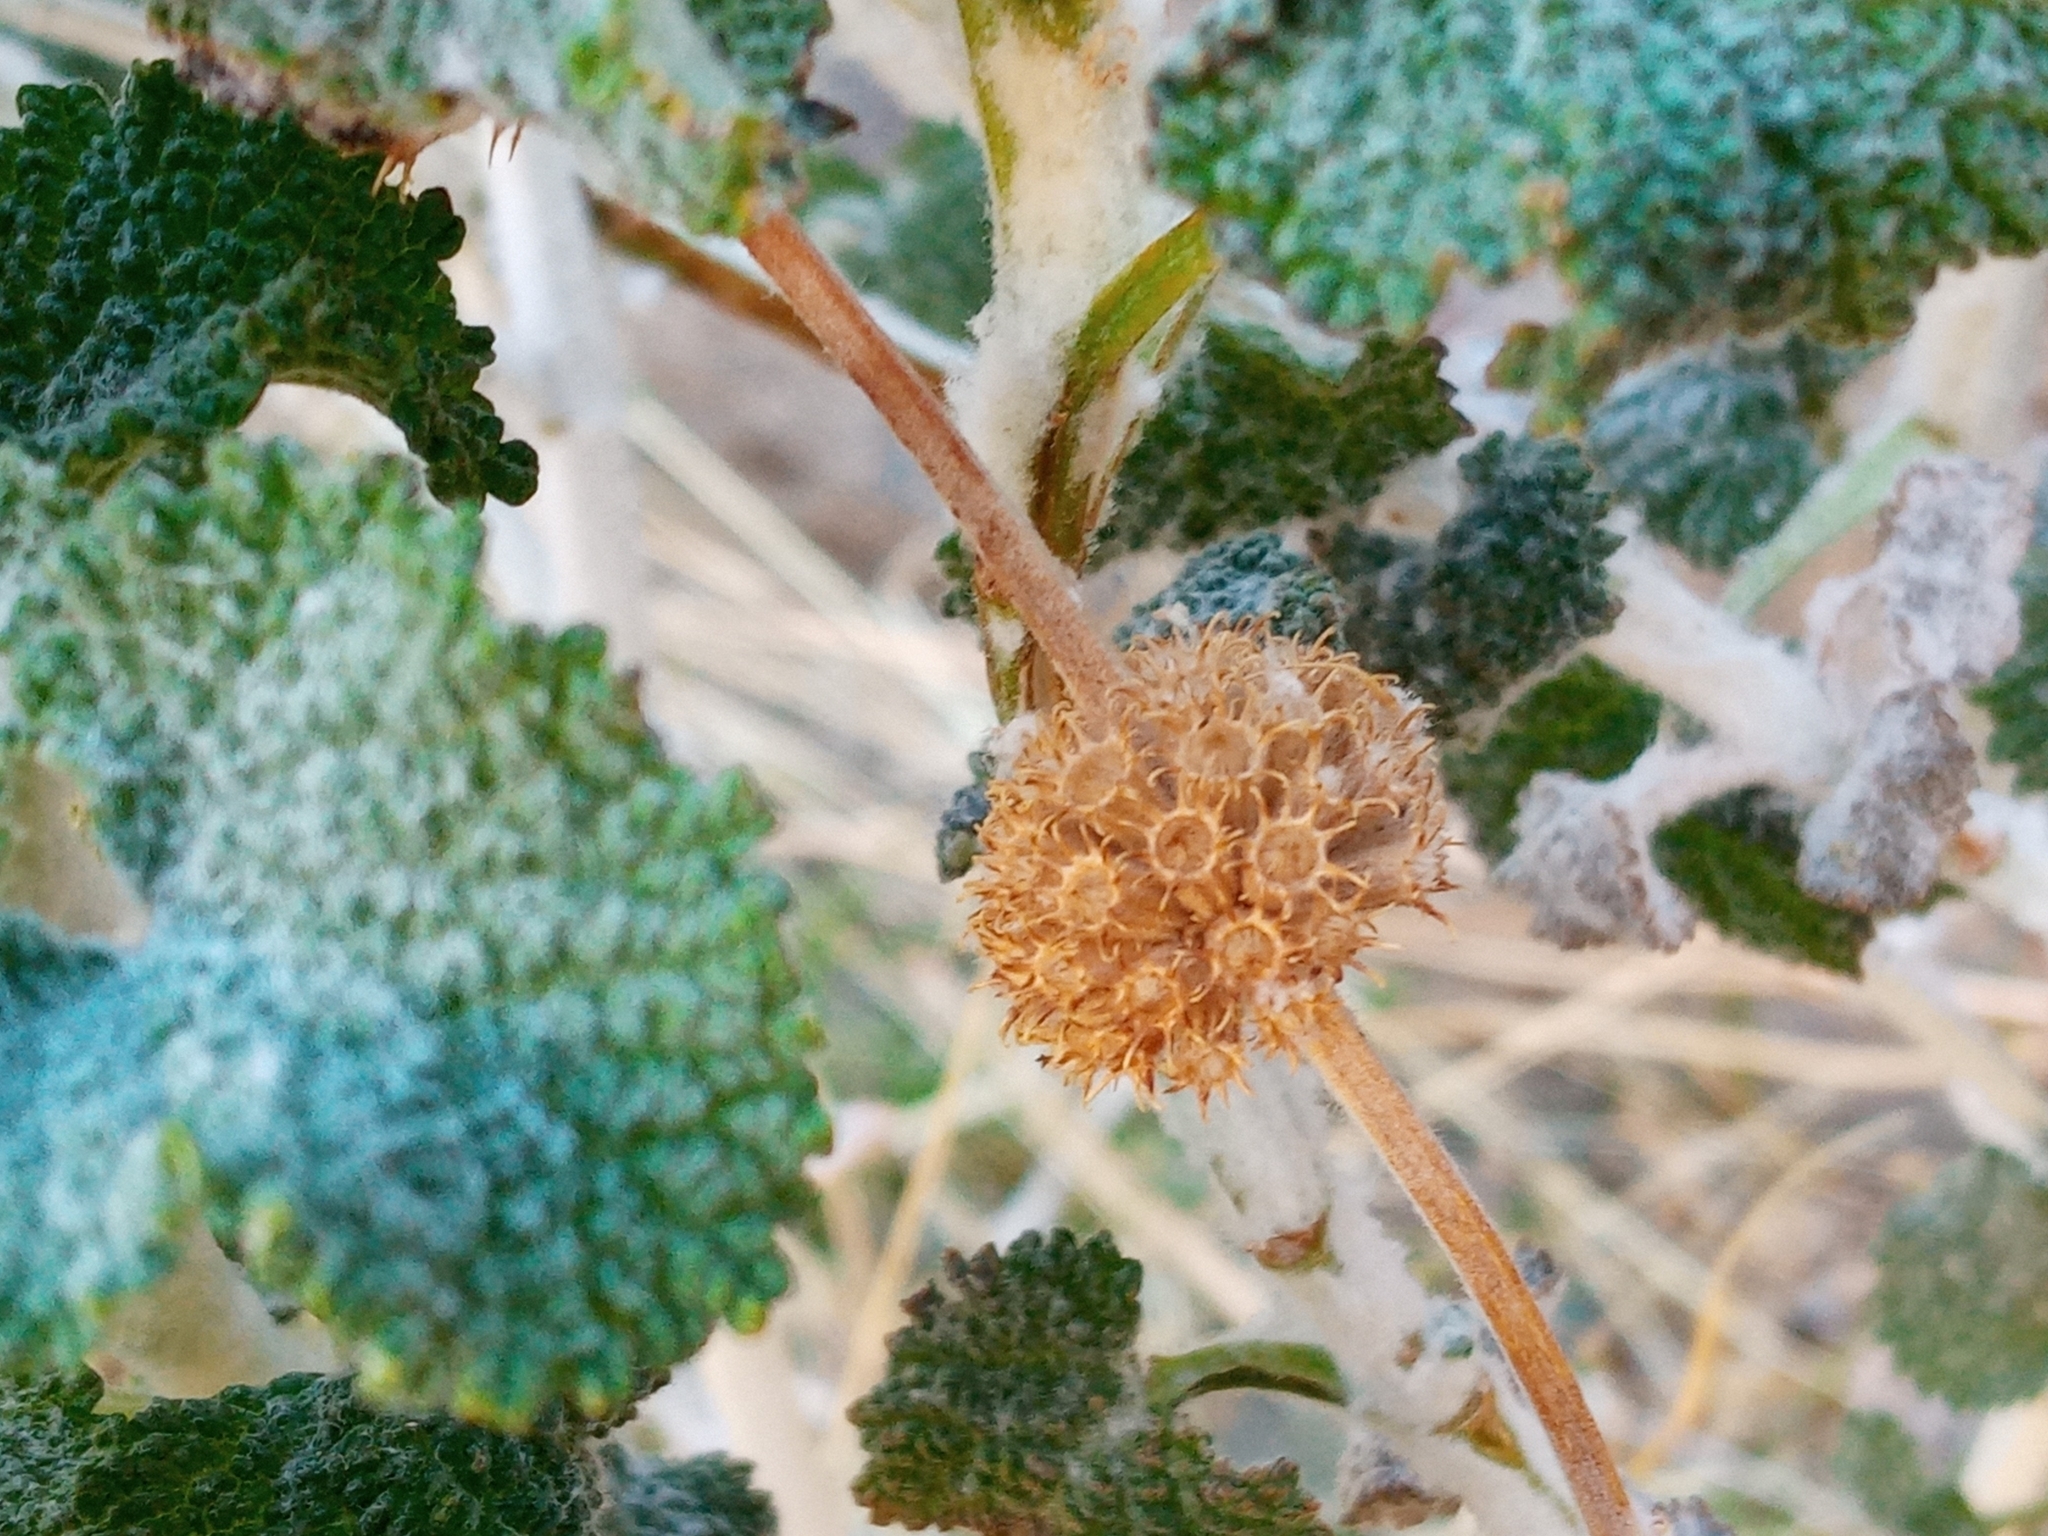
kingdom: Plantae
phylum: Tracheophyta
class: Magnoliopsida
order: Lamiales
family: Lamiaceae
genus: Marrubium
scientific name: Marrubium vulgare
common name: Horehound
